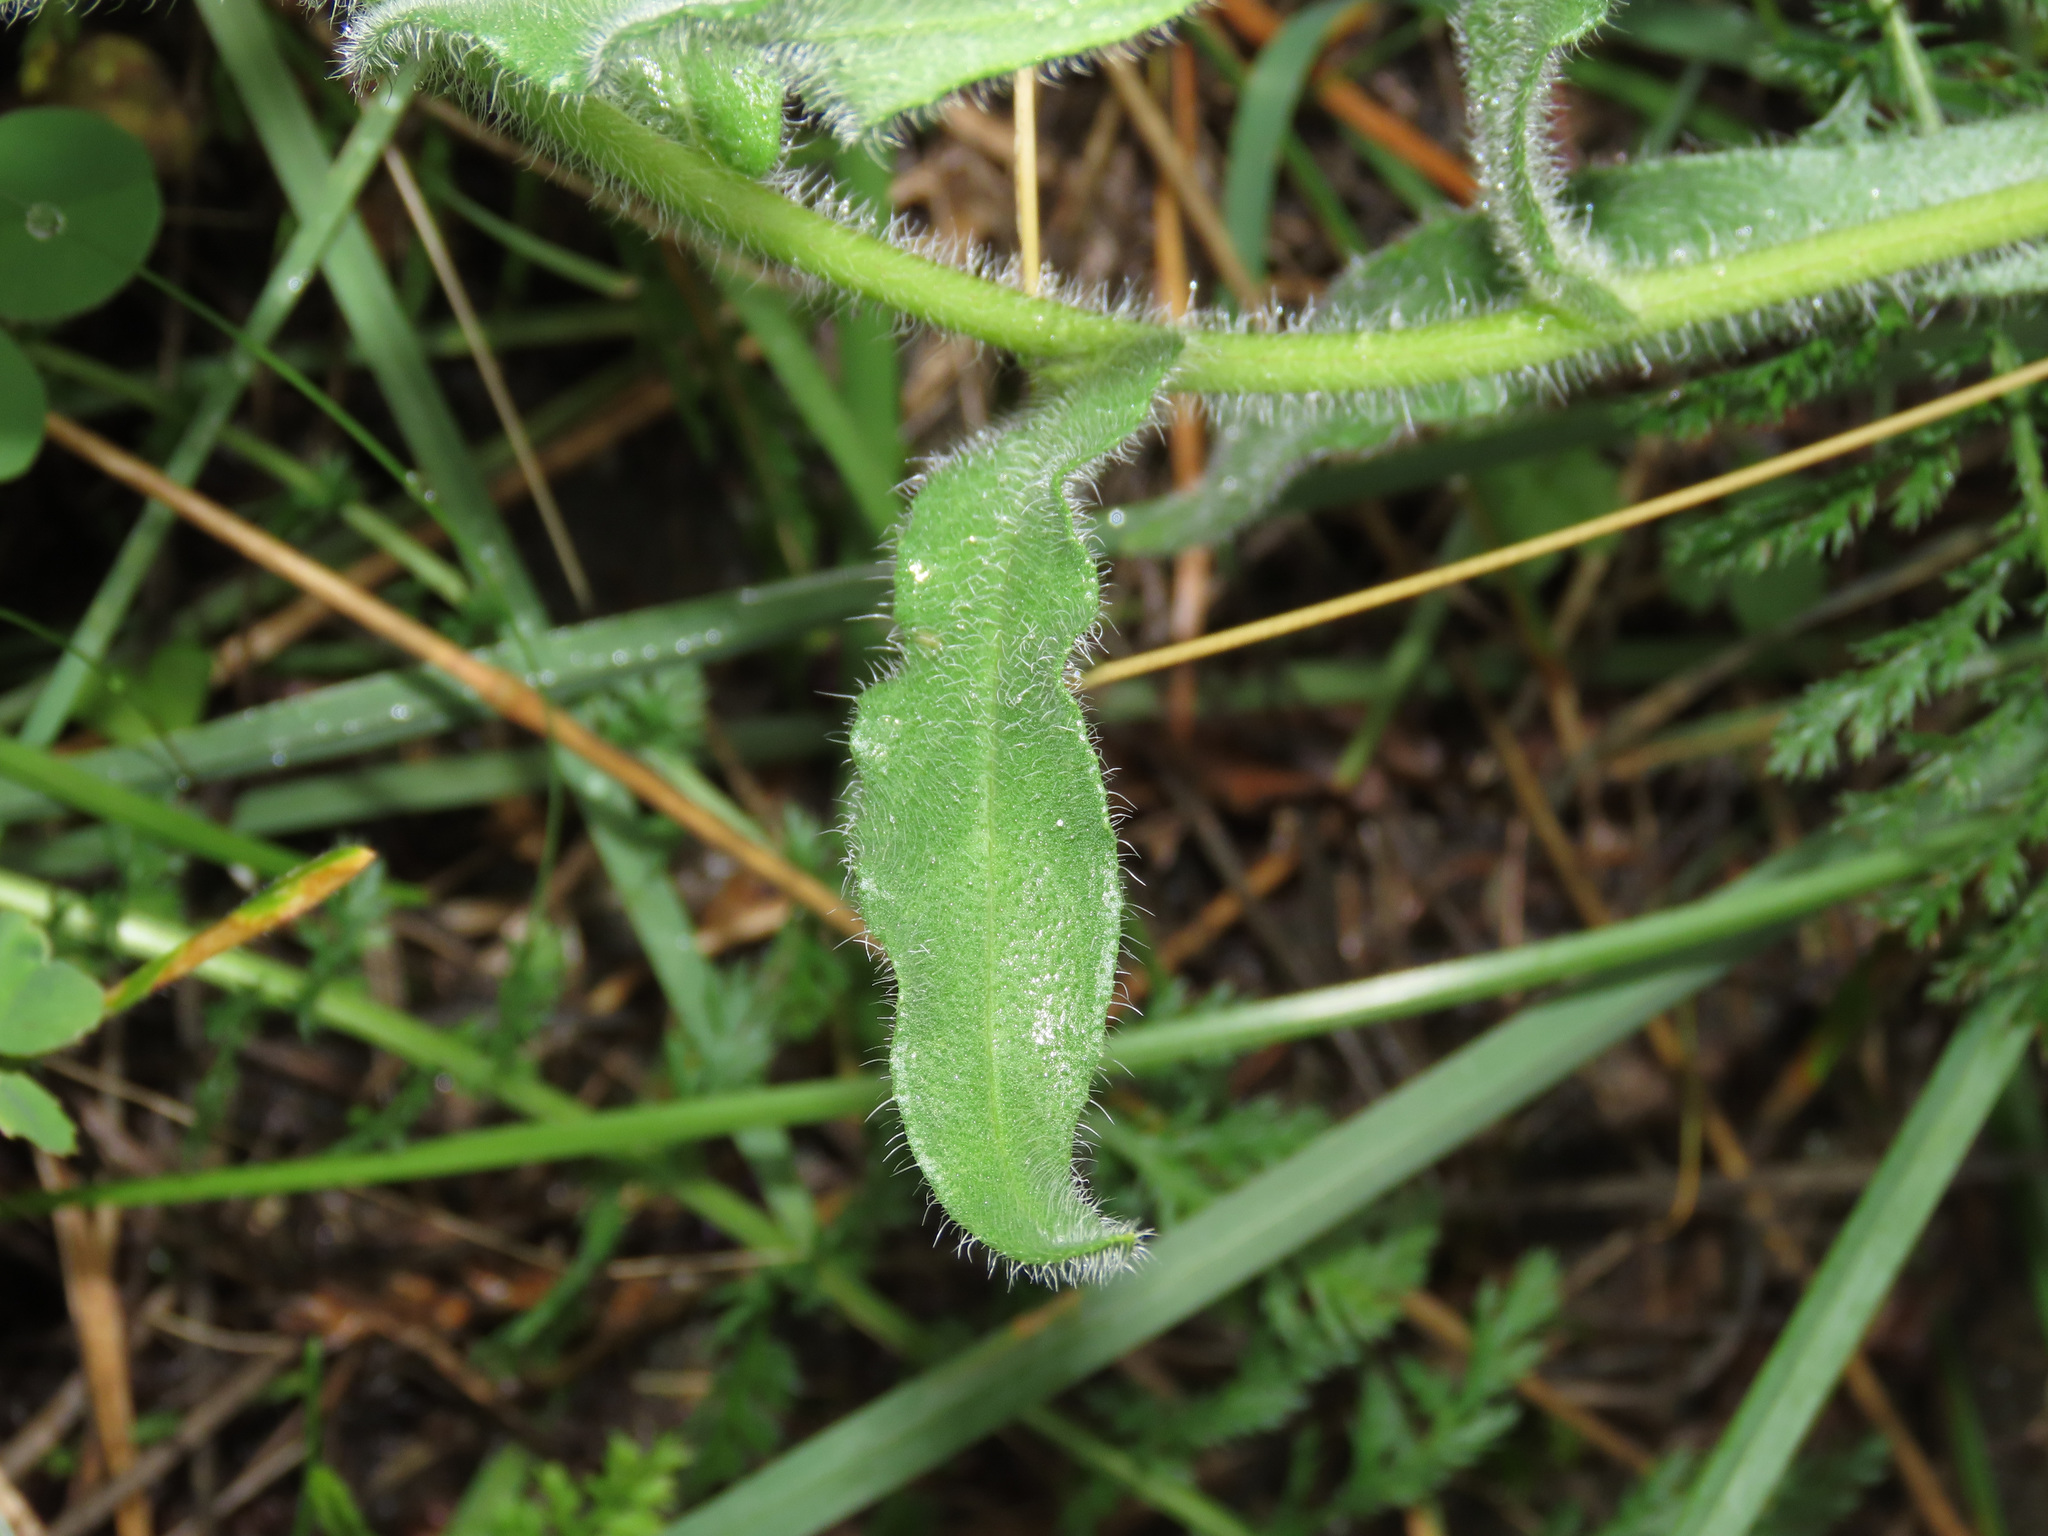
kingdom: Plantae
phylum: Tracheophyta
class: Magnoliopsida
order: Boraginales
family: Boraginaceae
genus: Lycopsis
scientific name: Lycopsis arvensis
